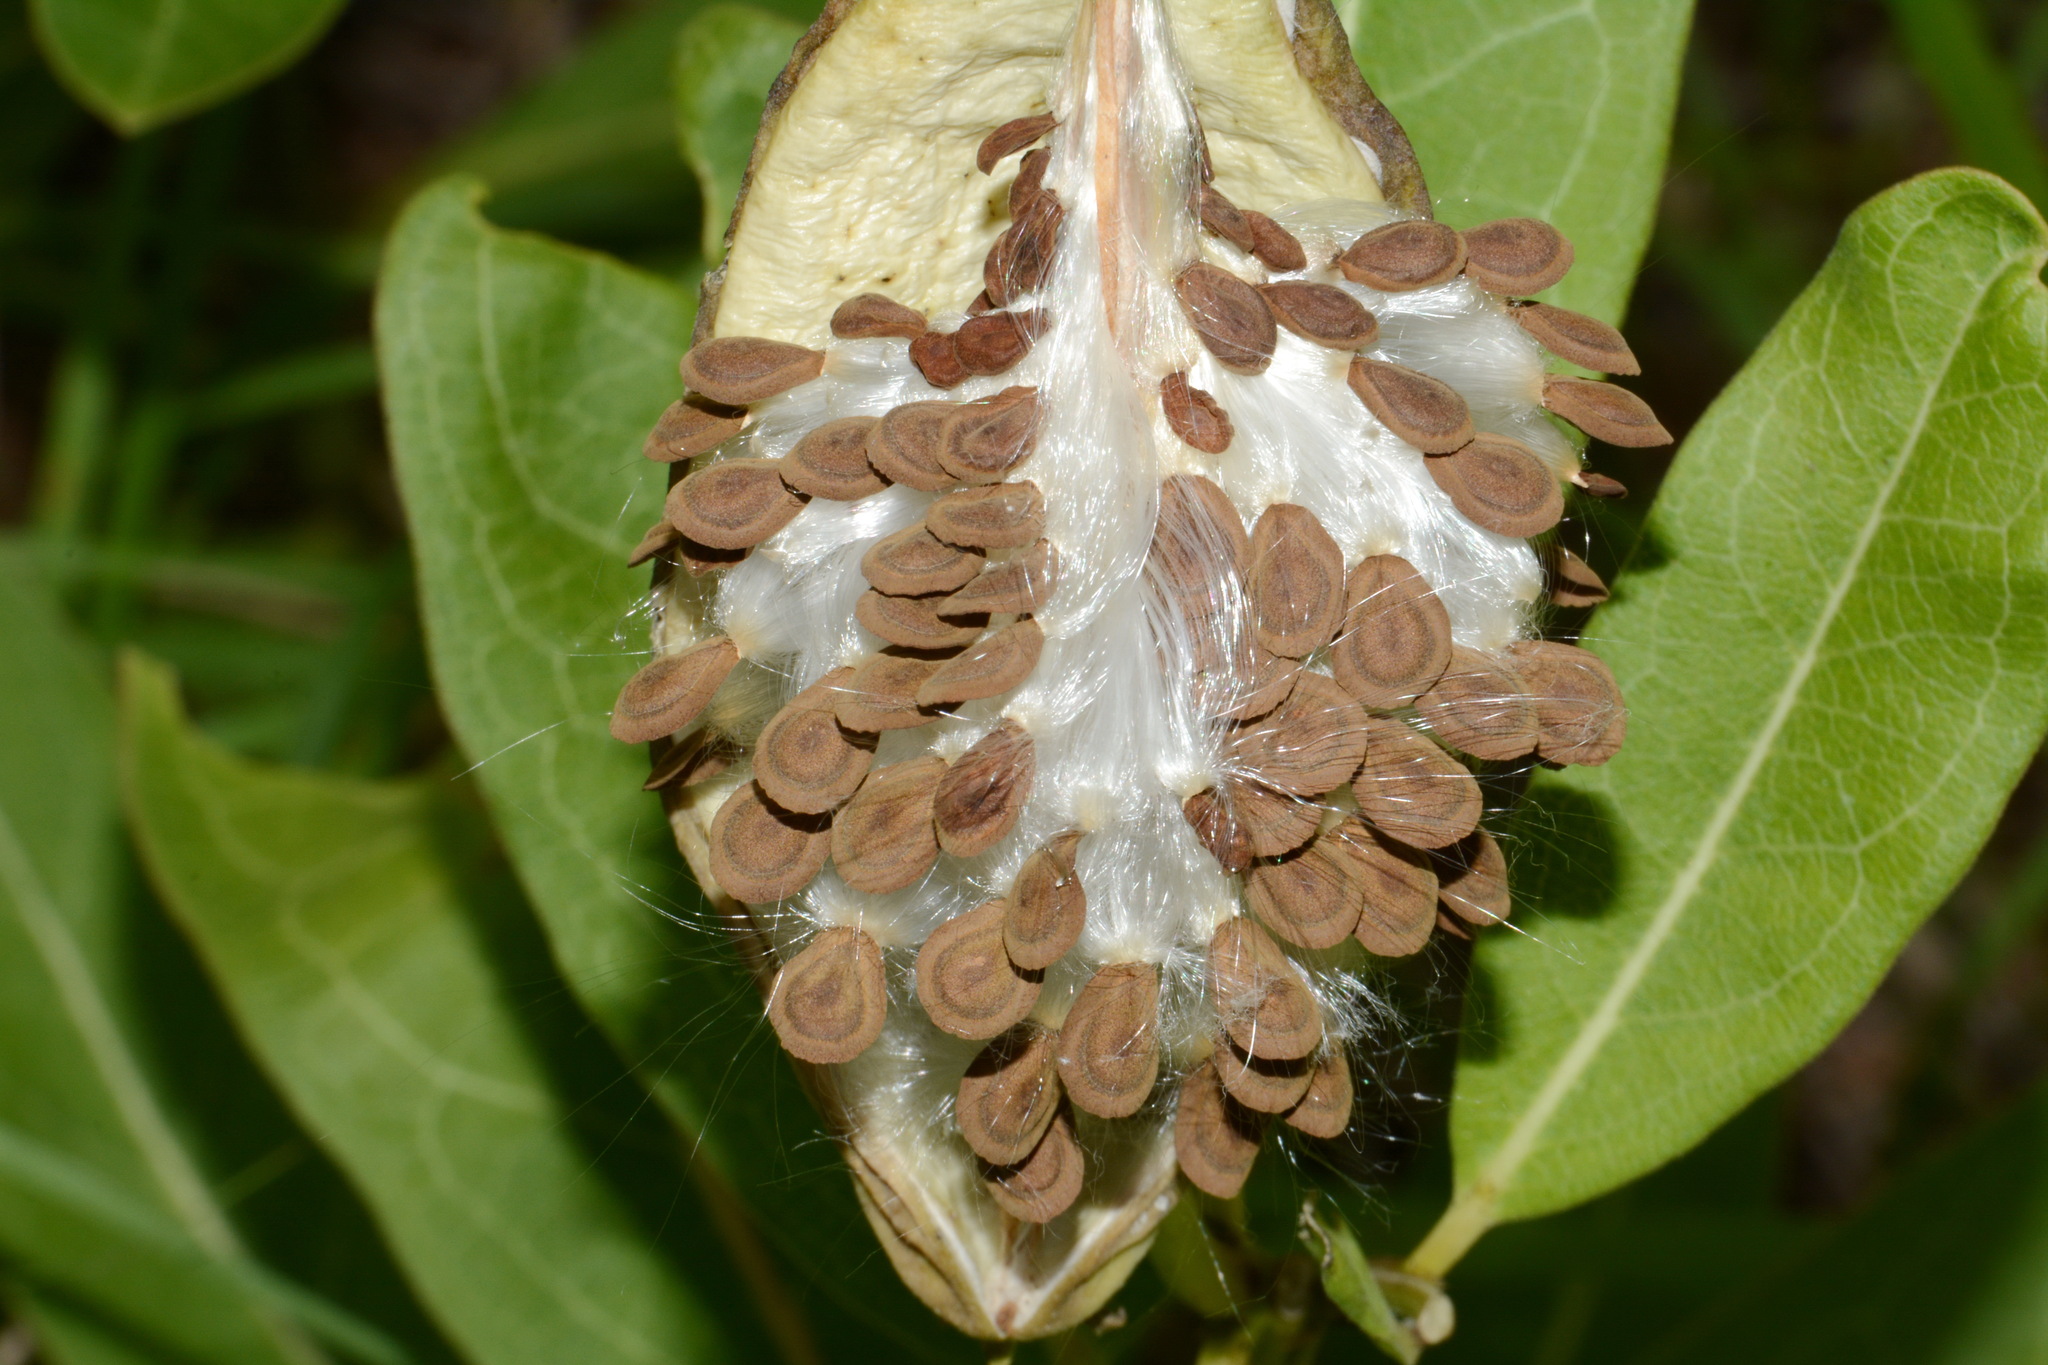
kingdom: Plantae
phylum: Tracheophyta
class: Magnoliopsida
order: Gentianales
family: Apocynaceae
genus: Asclepias
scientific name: Asclepias viridis
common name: Antelope-horns
